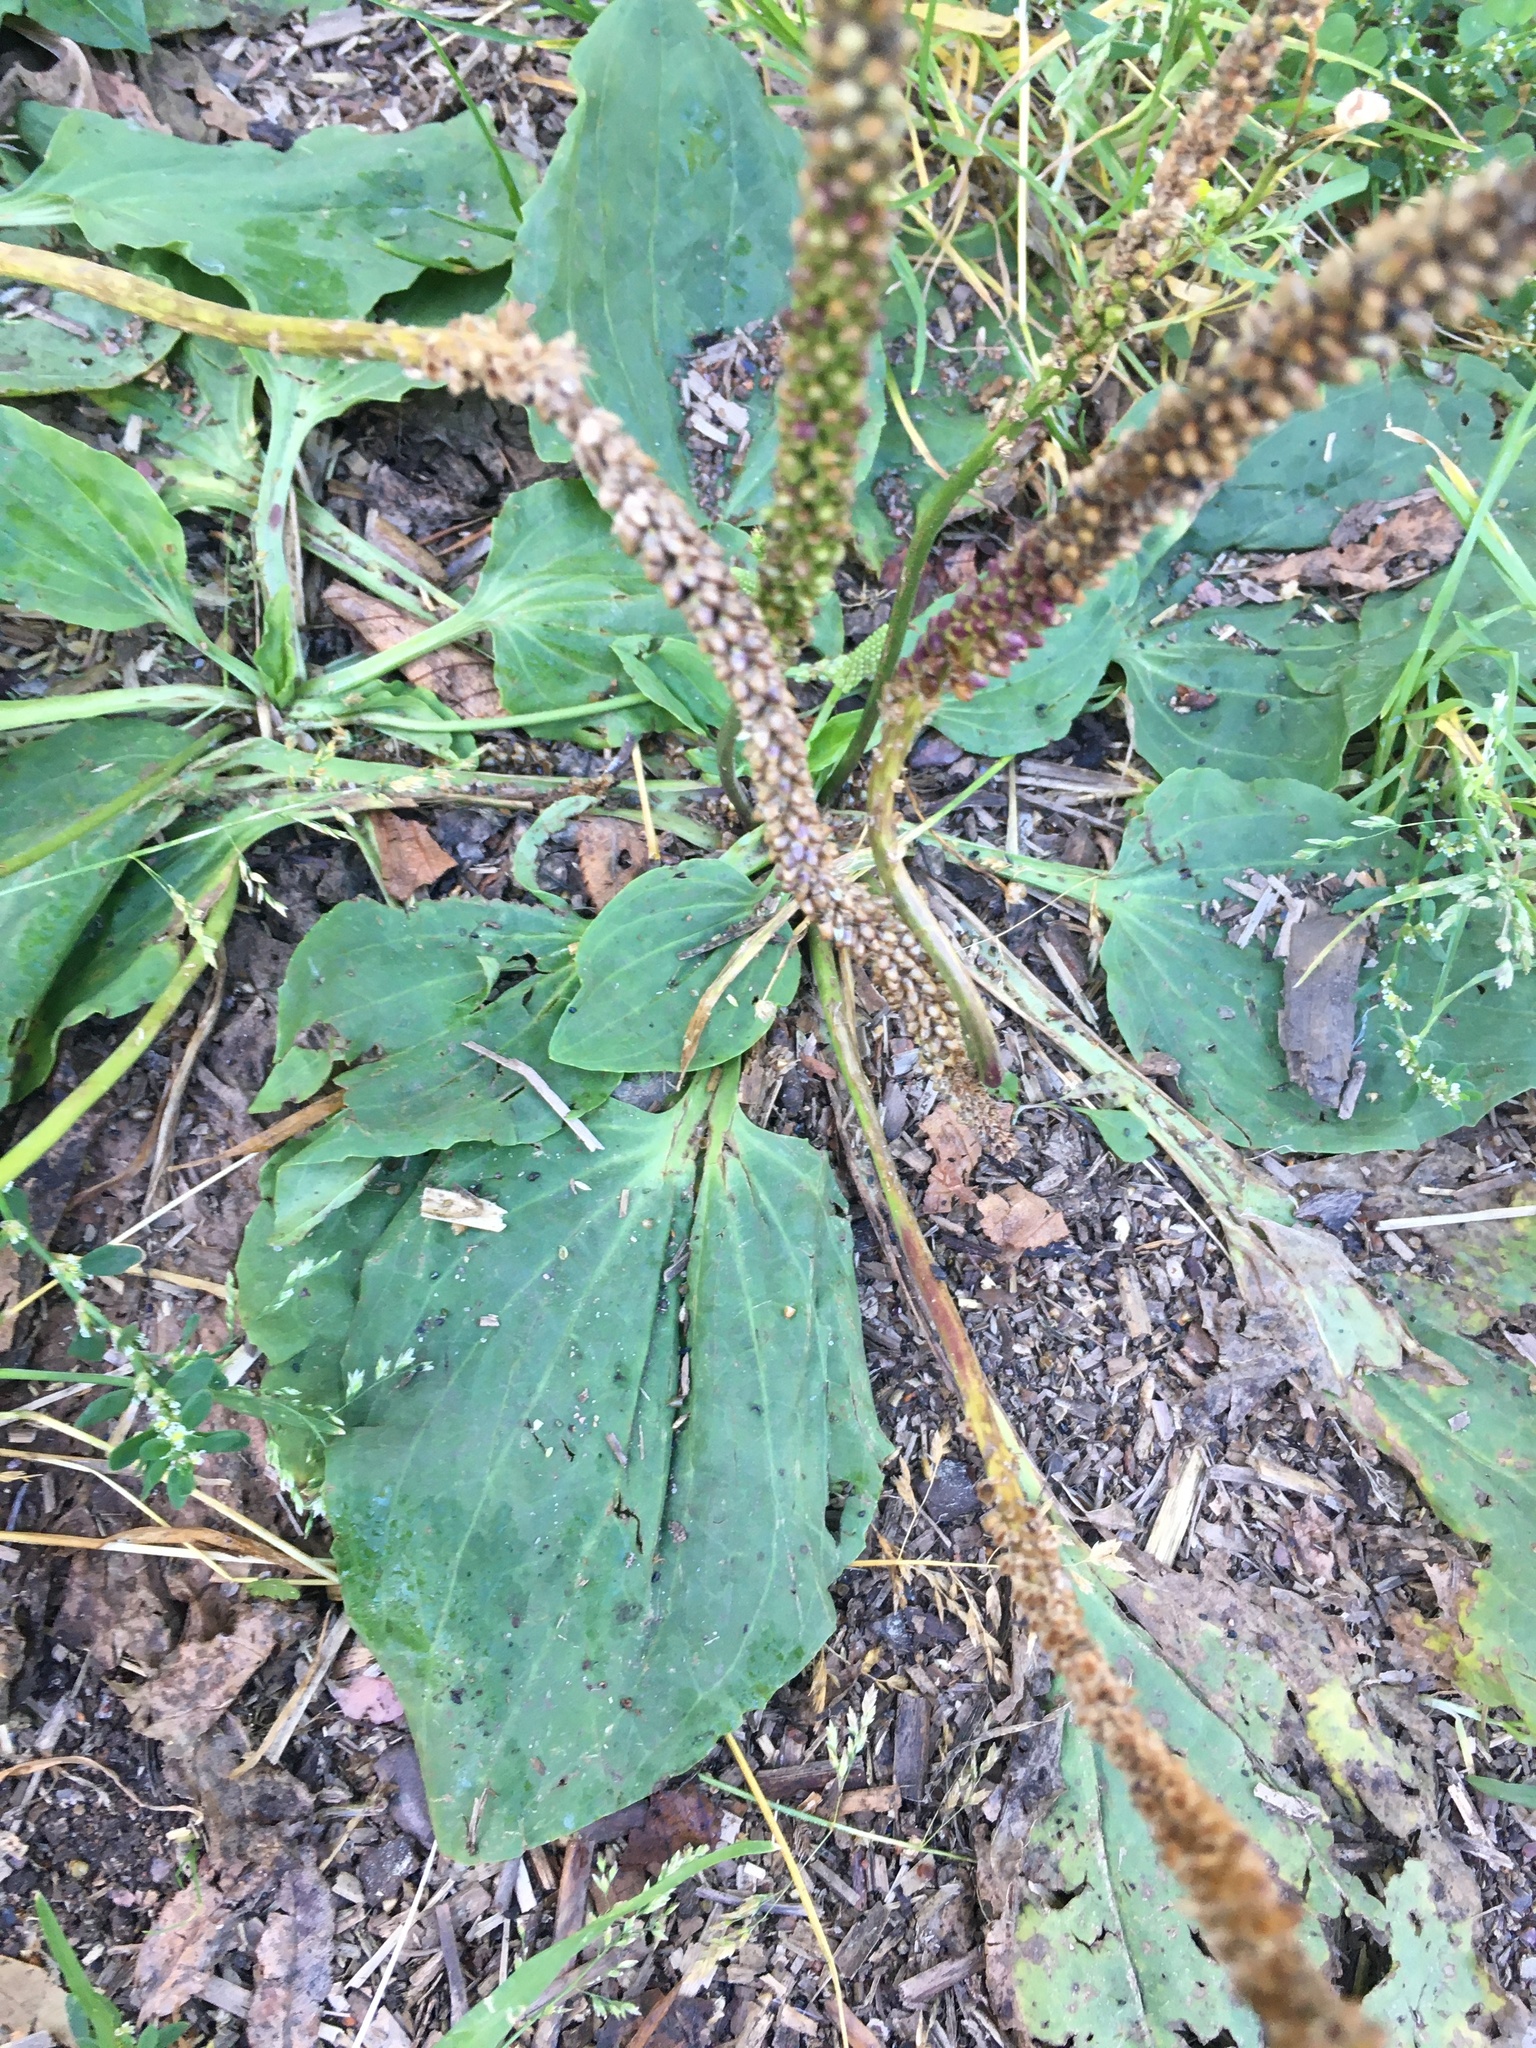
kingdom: Plantae
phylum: Tracheophyta
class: Magnoliopsida
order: Lamiales
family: Plantaginaceae
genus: Plantago
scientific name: Plantago major
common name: Common plantain
